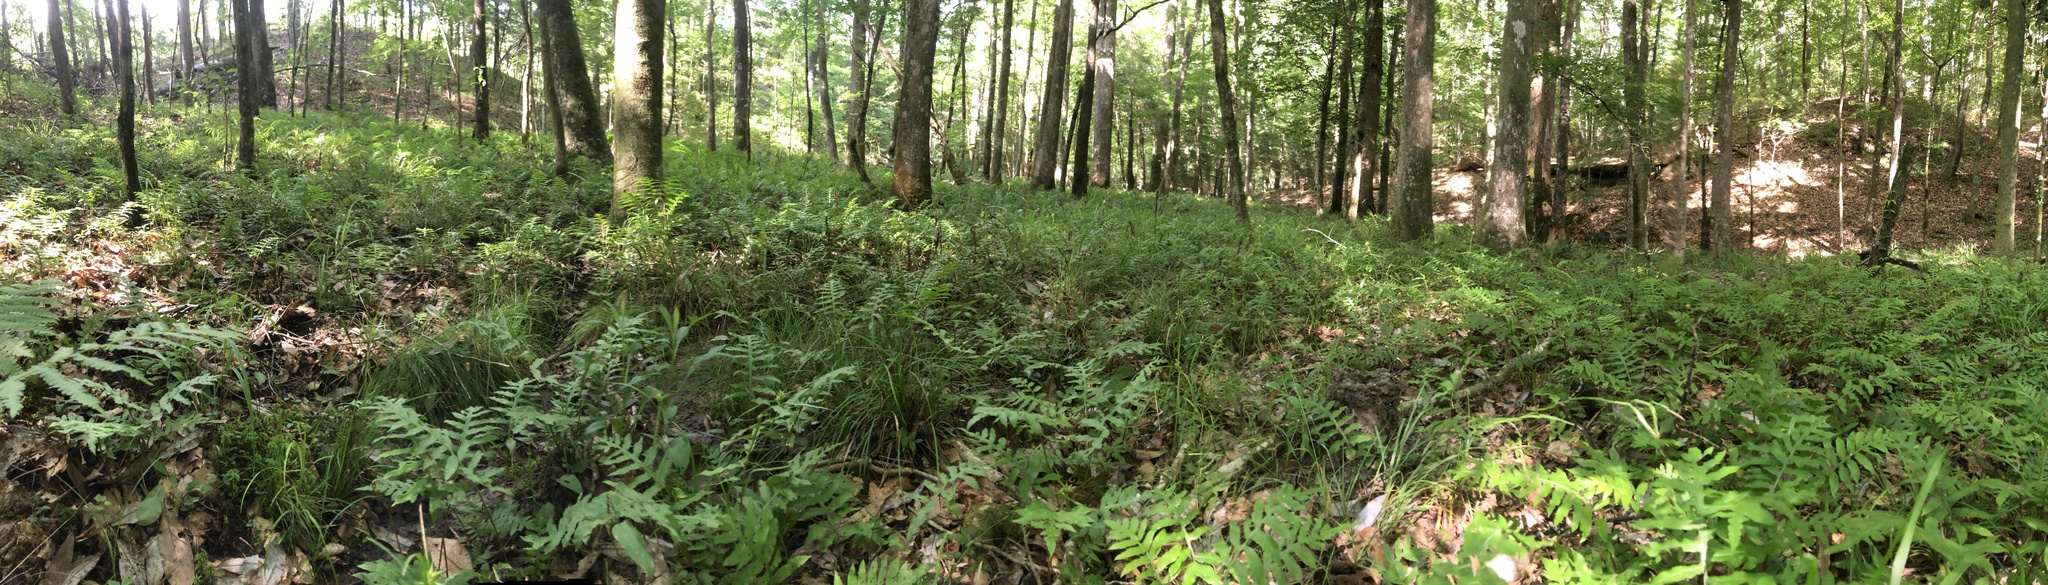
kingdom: Plantae
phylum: Tracheophyta
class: Polypodiopsida
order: Polypodiales
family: Blechnaceae
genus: Lorinseria
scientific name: Lorinseria areolata
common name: Dwarf chain fern
